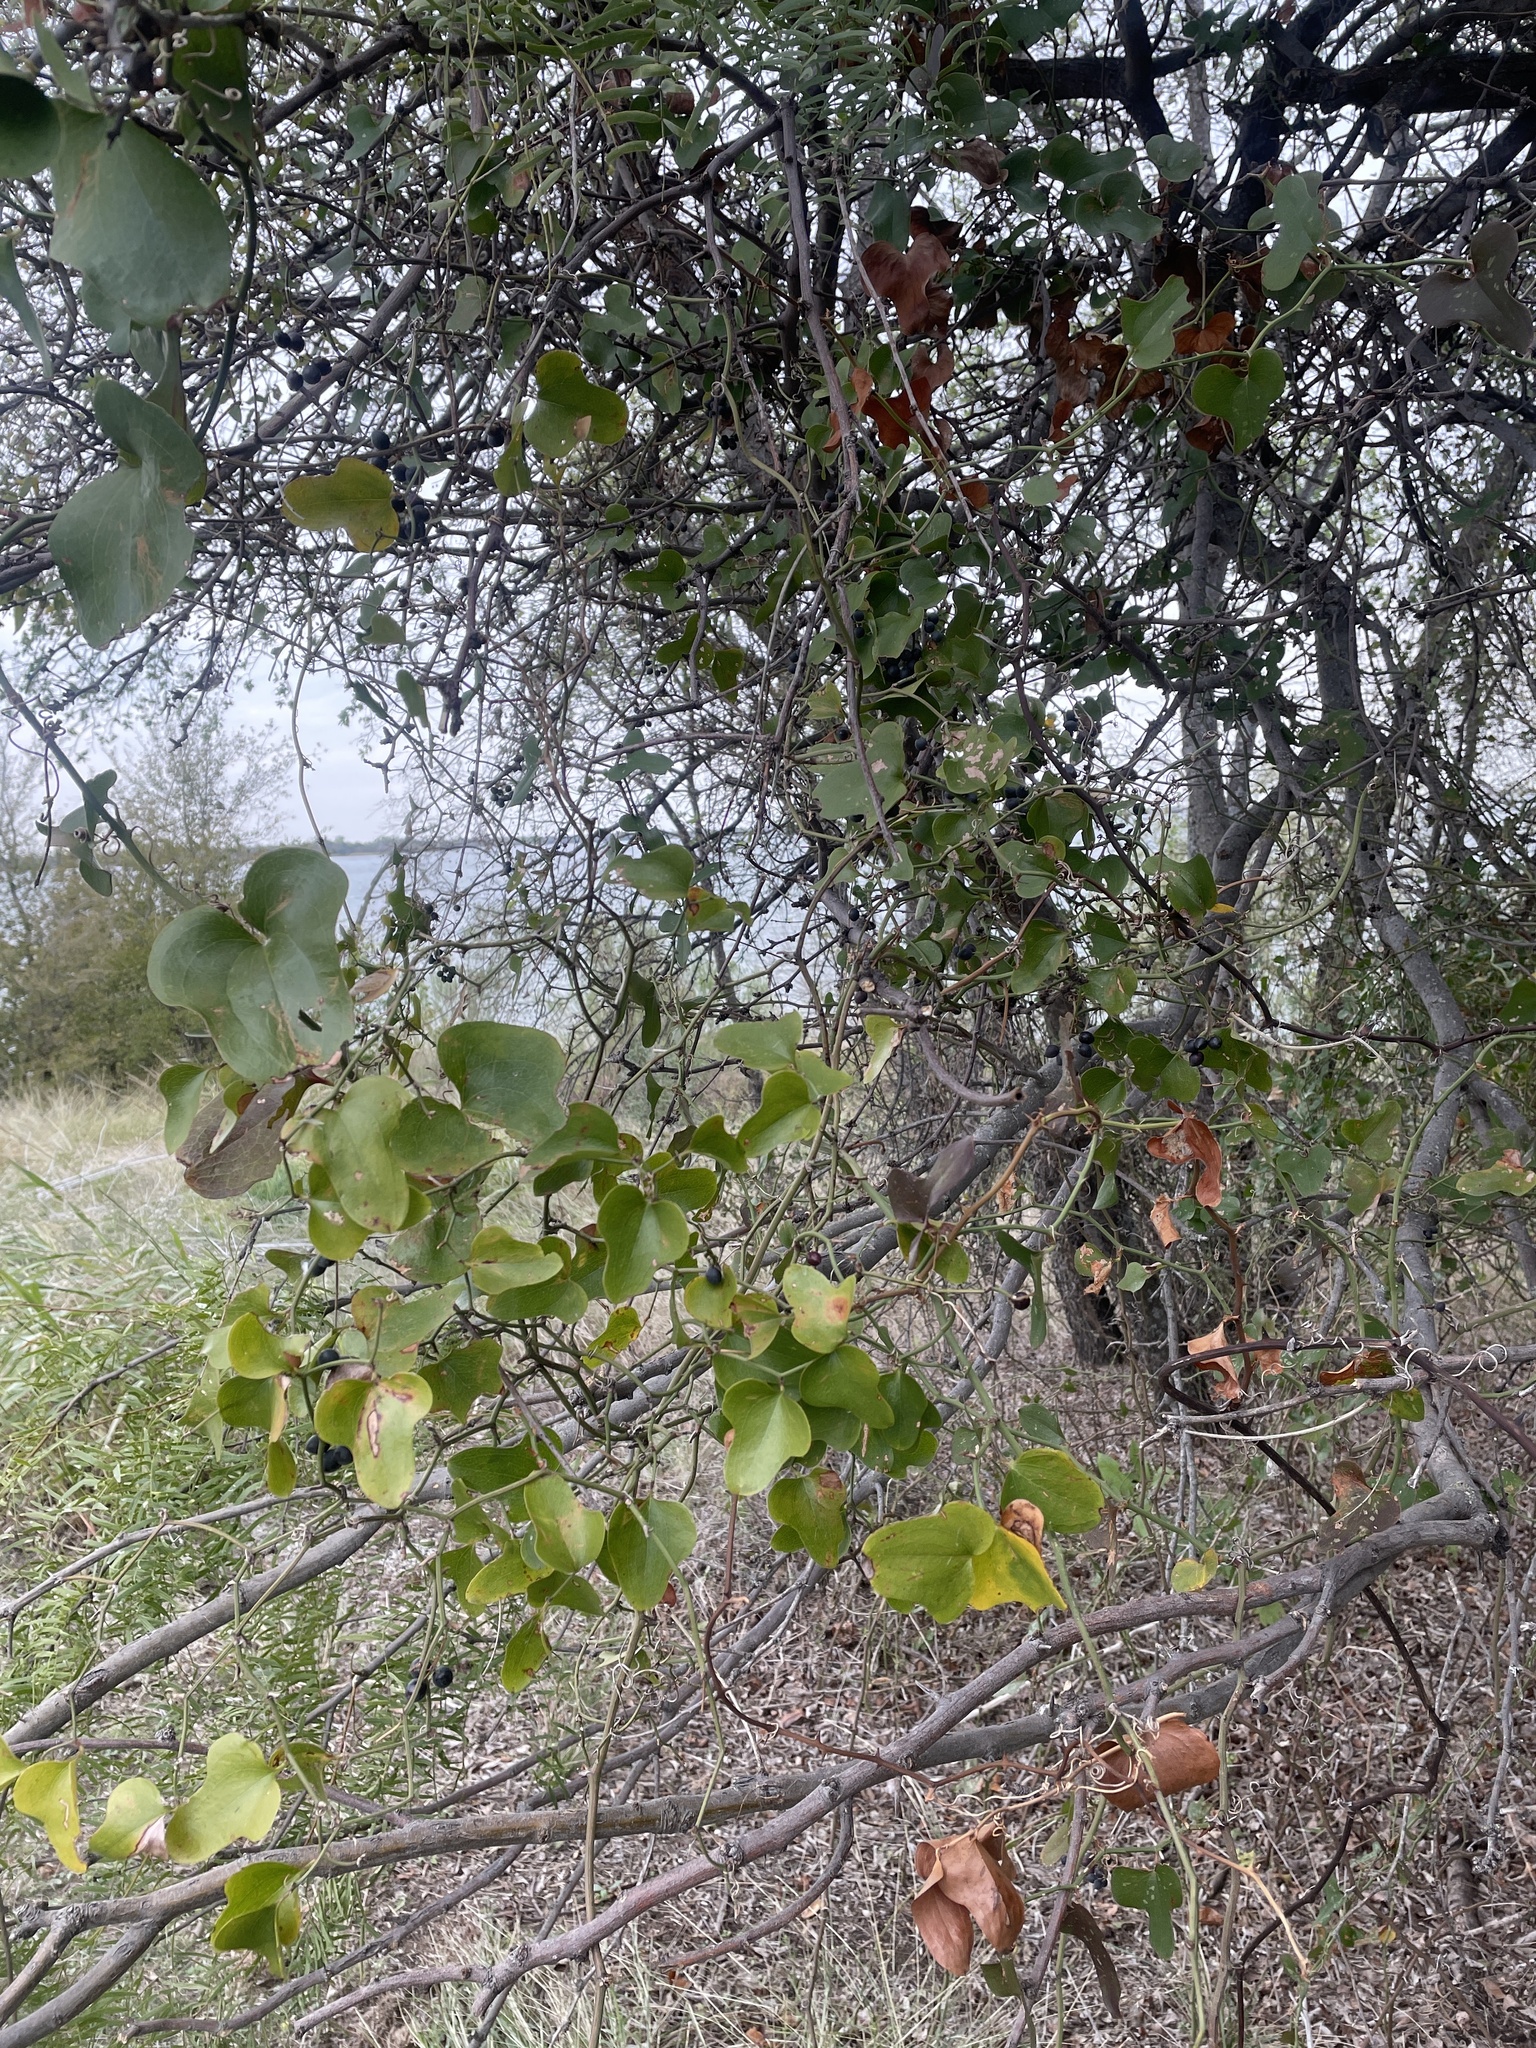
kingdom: Plantae
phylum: Tracheophyta
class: Liliopsida
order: Liliales
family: Smilacaceae
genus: Smilax
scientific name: Smilax bona-nox
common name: Catbrier
